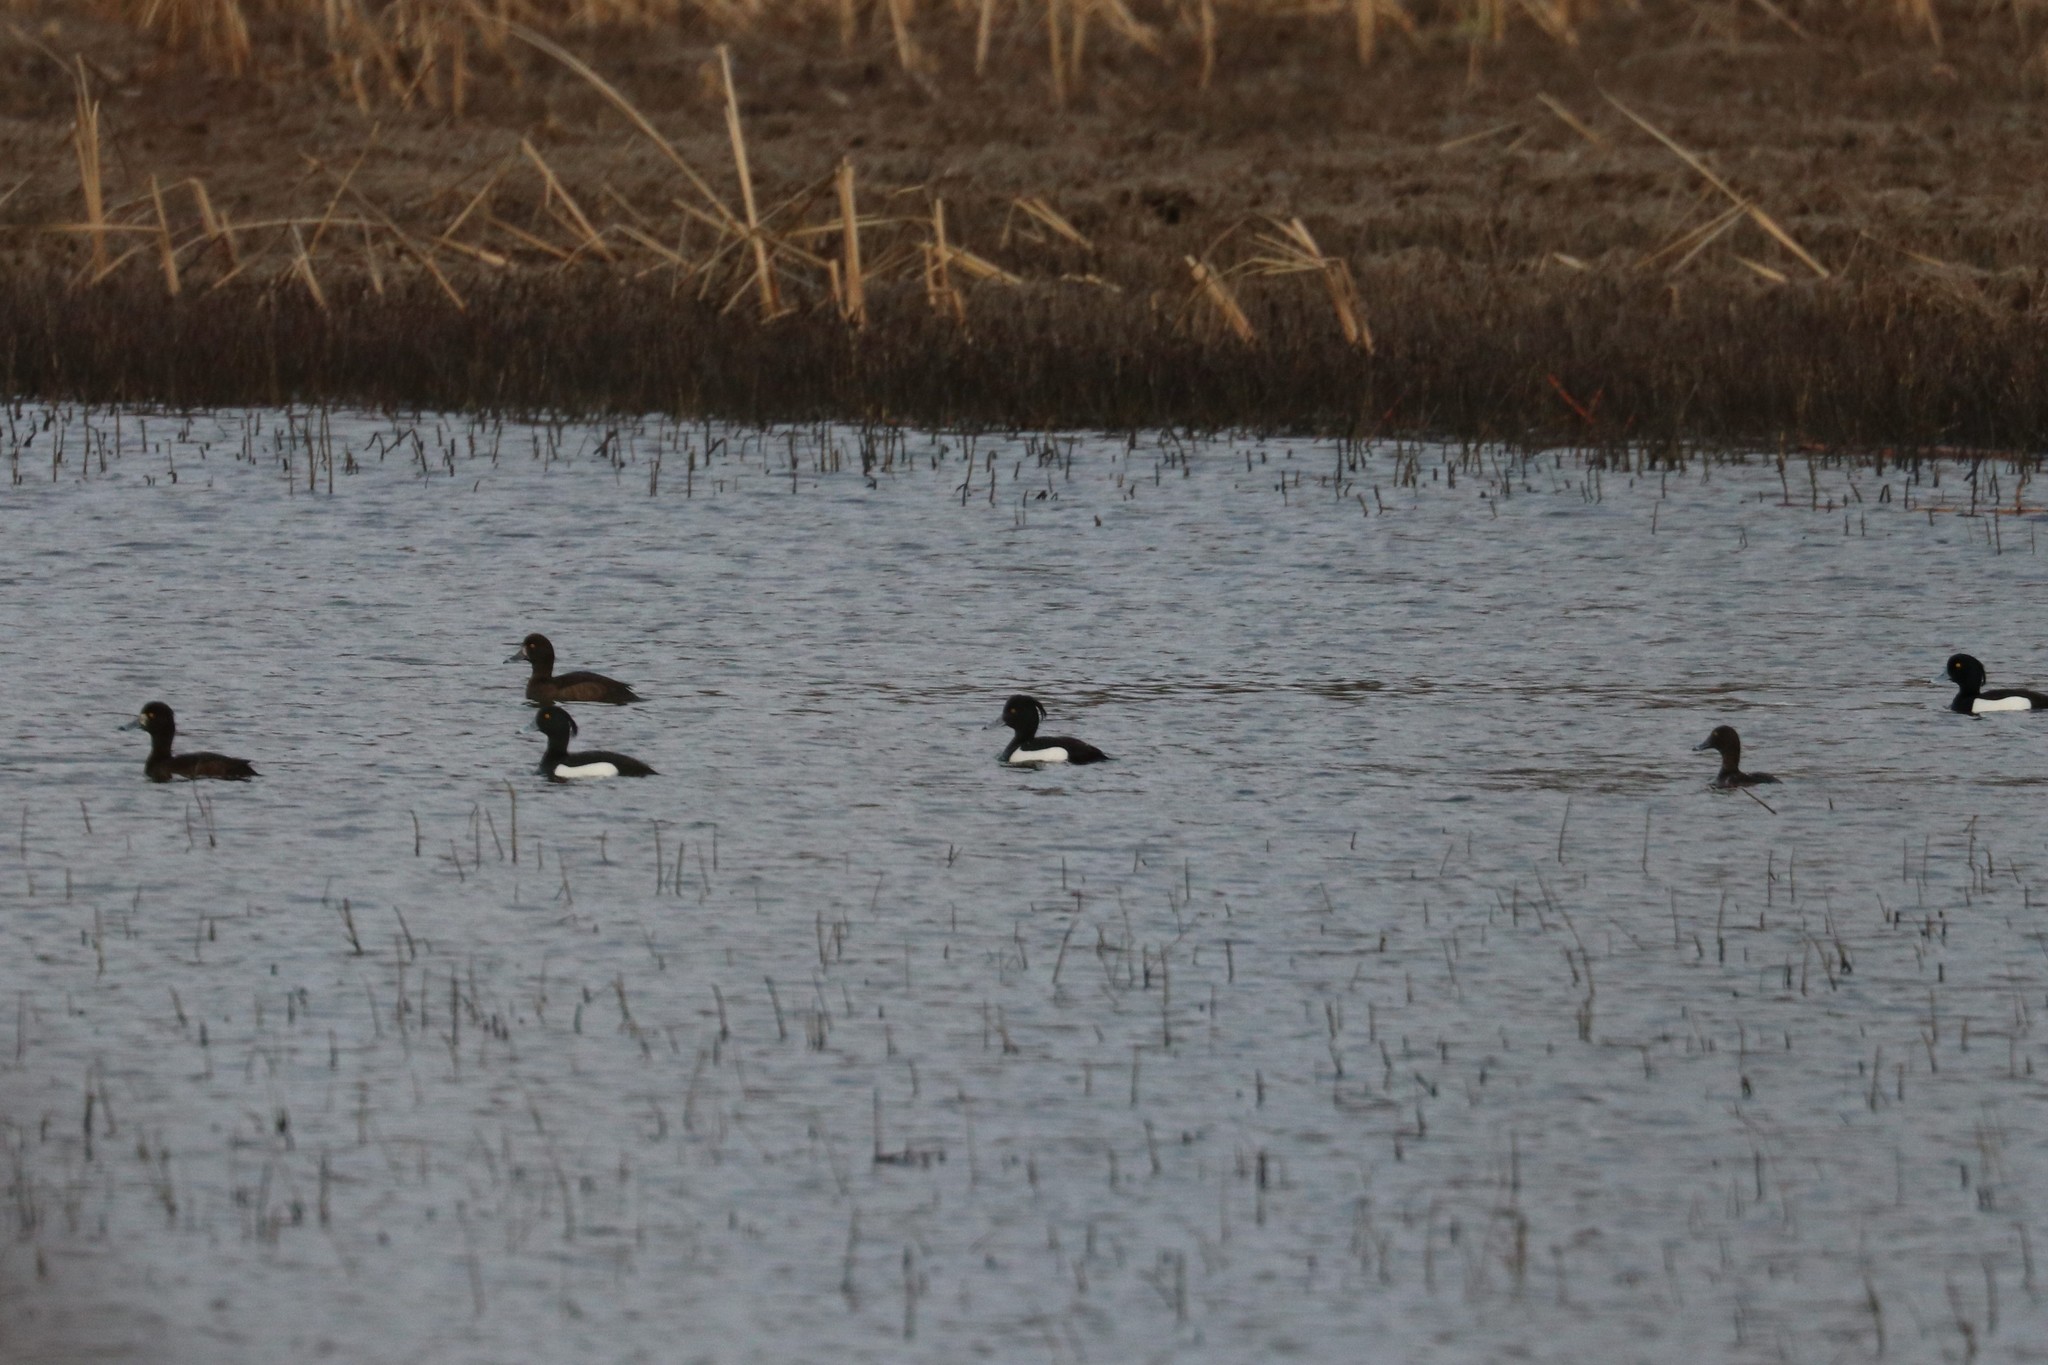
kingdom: Animalia
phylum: Chordata
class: Aves
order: Anseriformes
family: Anatidae
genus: Aythya
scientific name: Aythya fuligula
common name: Tufted duck
